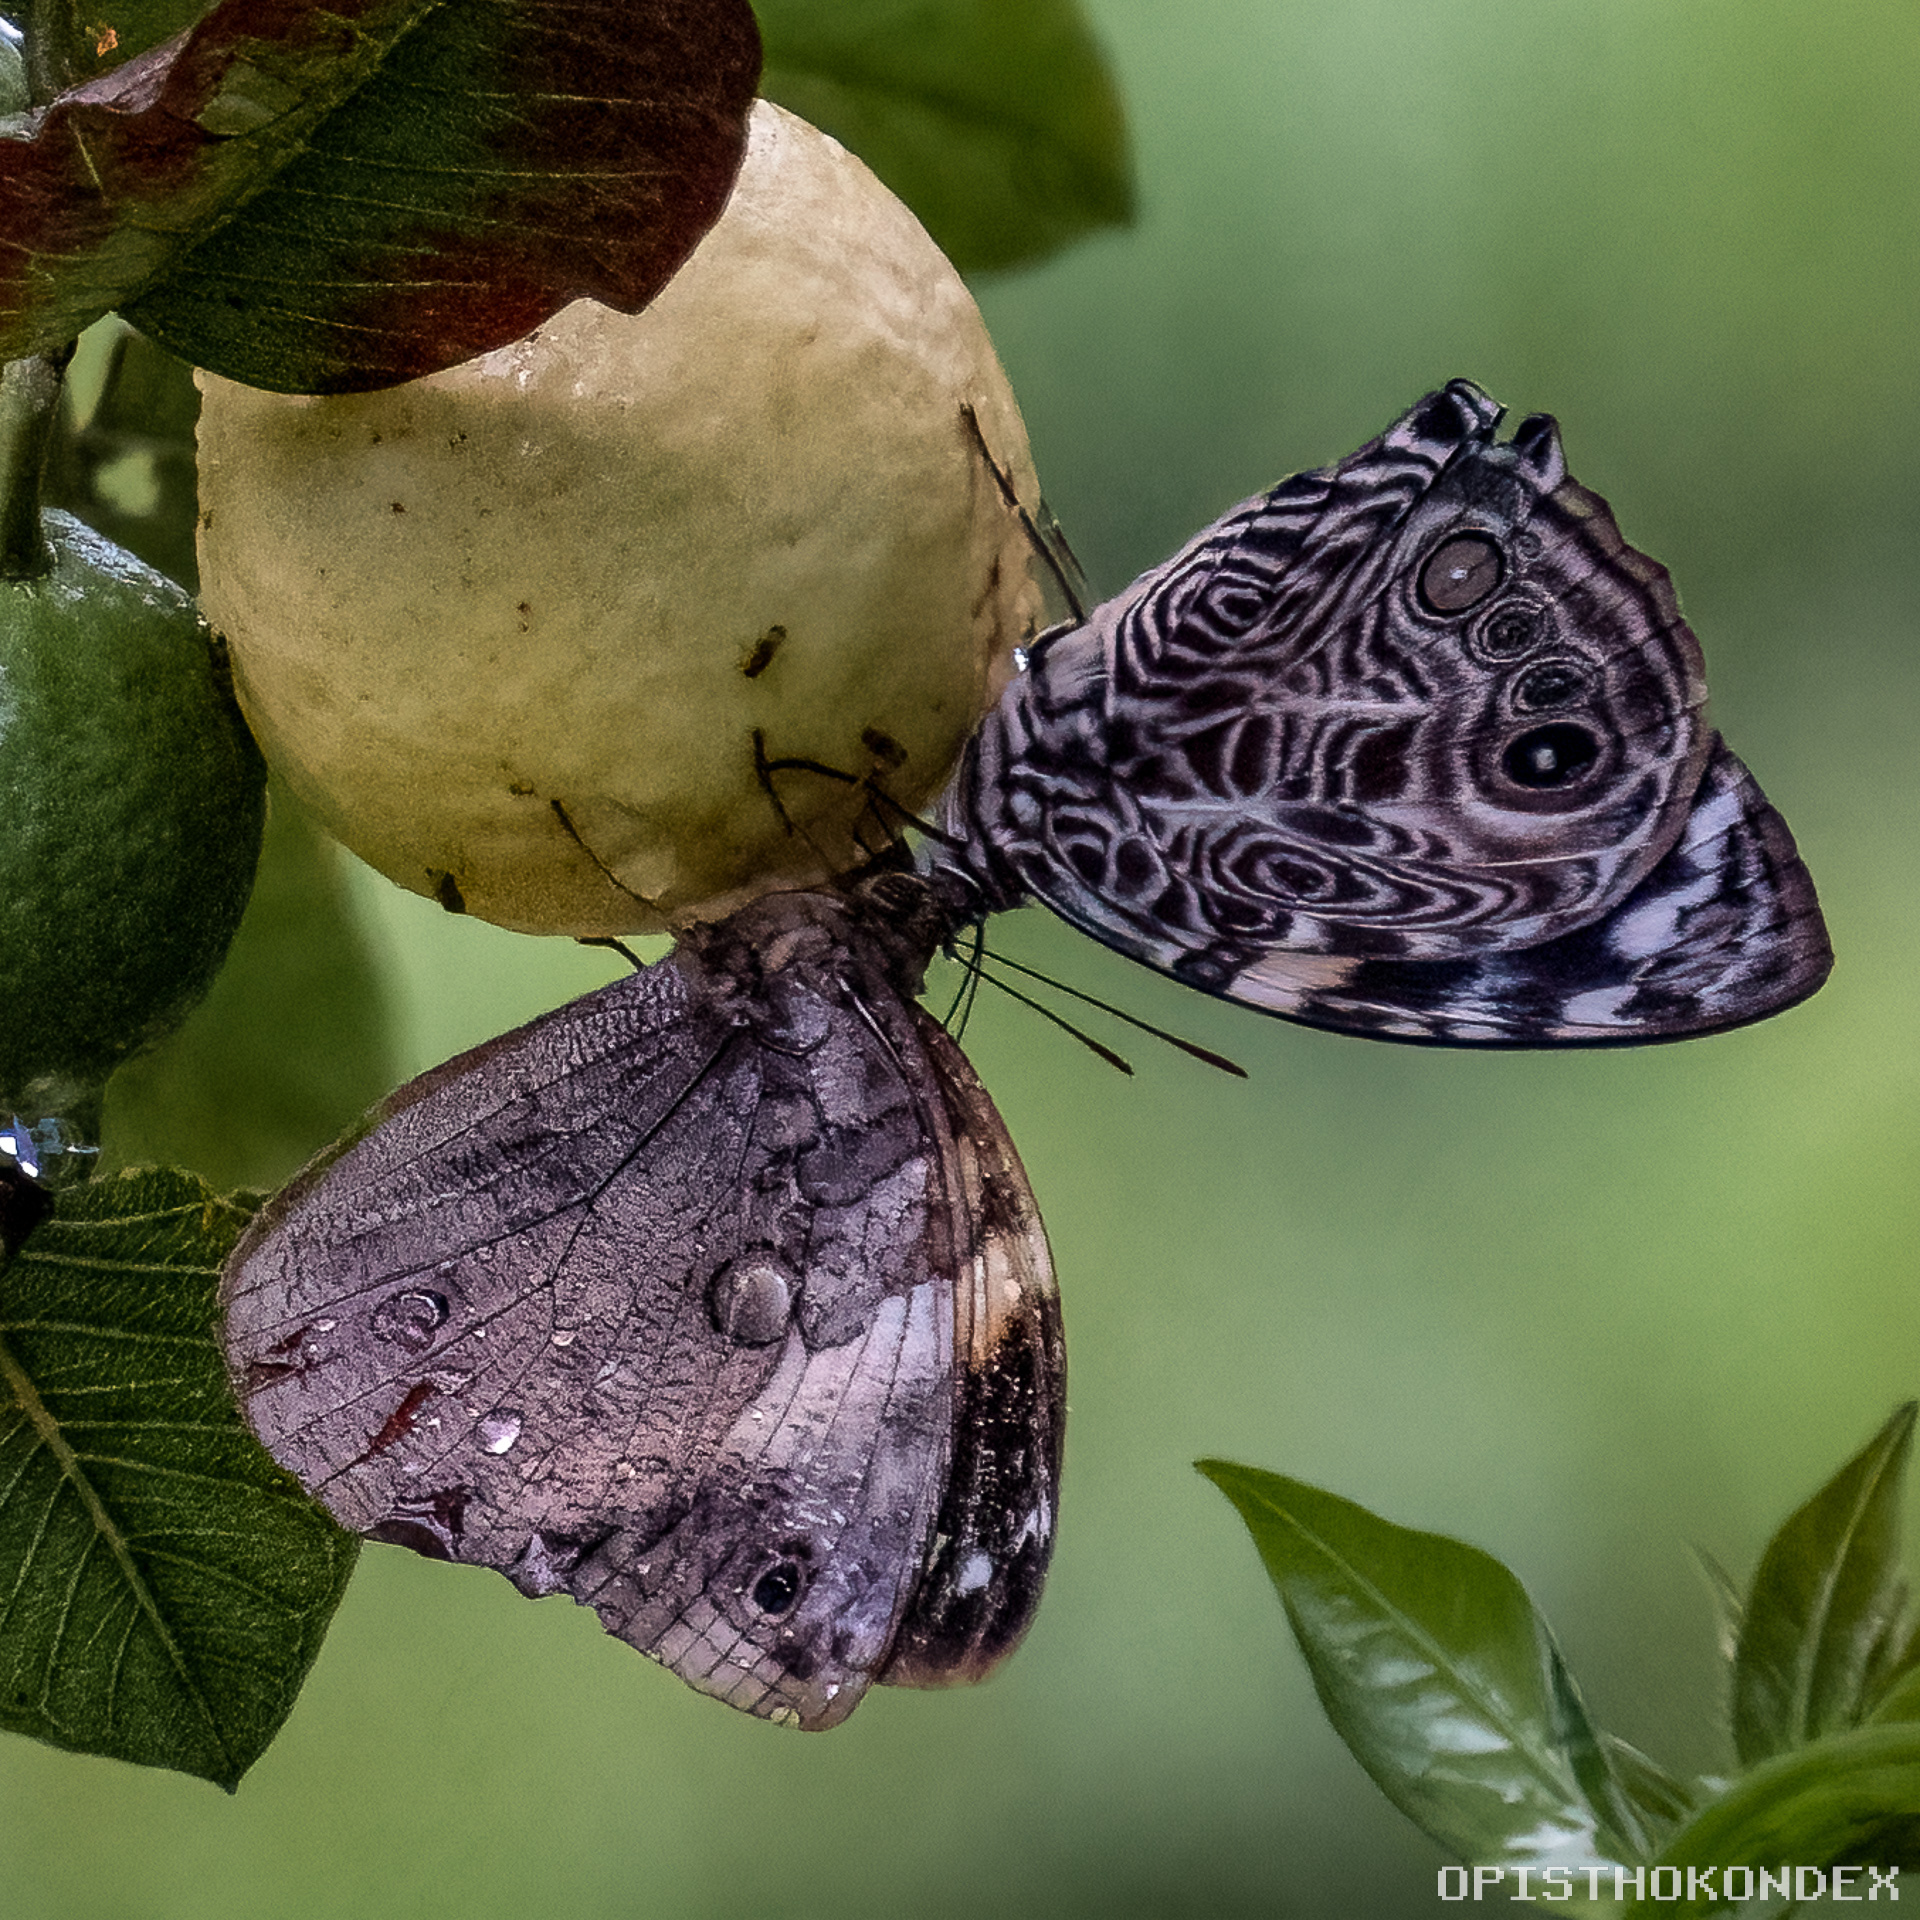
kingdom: Animalia
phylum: Arthropoda
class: Insecta
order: Lepidoptera
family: Nymphalidae
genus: Smyrna
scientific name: Smyrna blomfildia
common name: Blomfild's beauty
